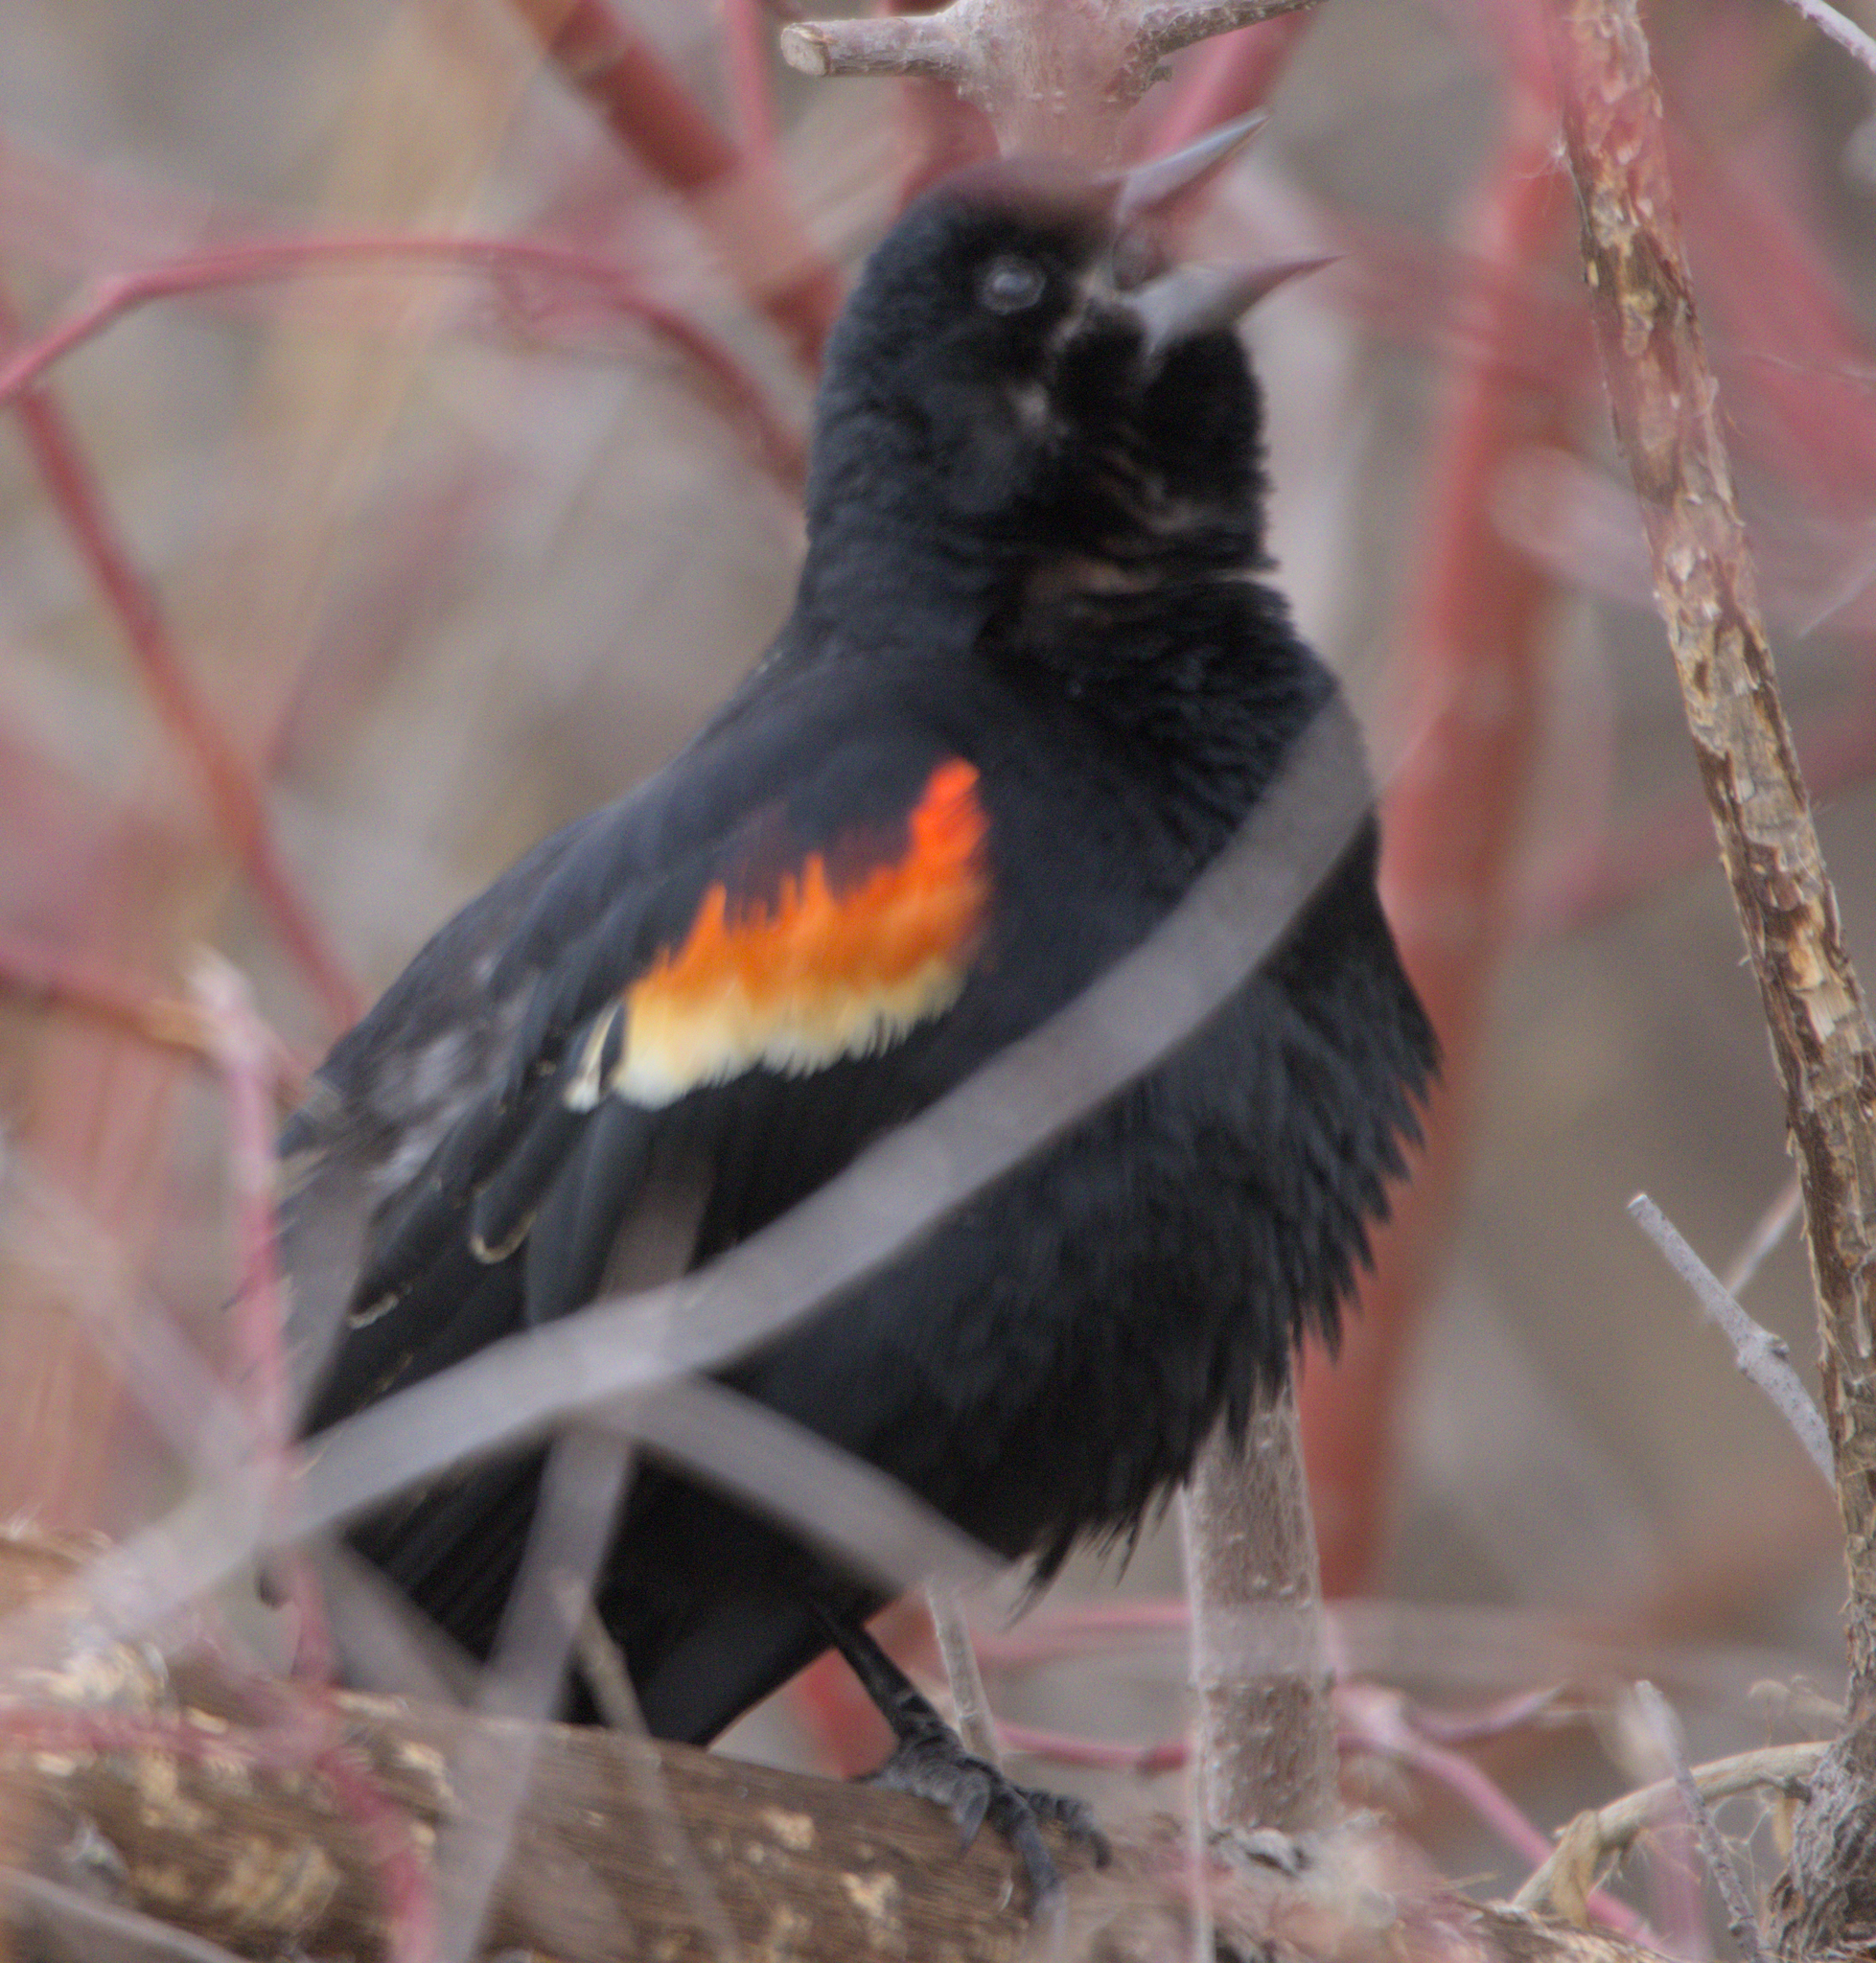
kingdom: Animalia
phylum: Chordata
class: Aves
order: Passeriformes
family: Icteridae
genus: Agelaius
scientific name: Agelaius phoeniceus
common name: Red-winged blackbird
